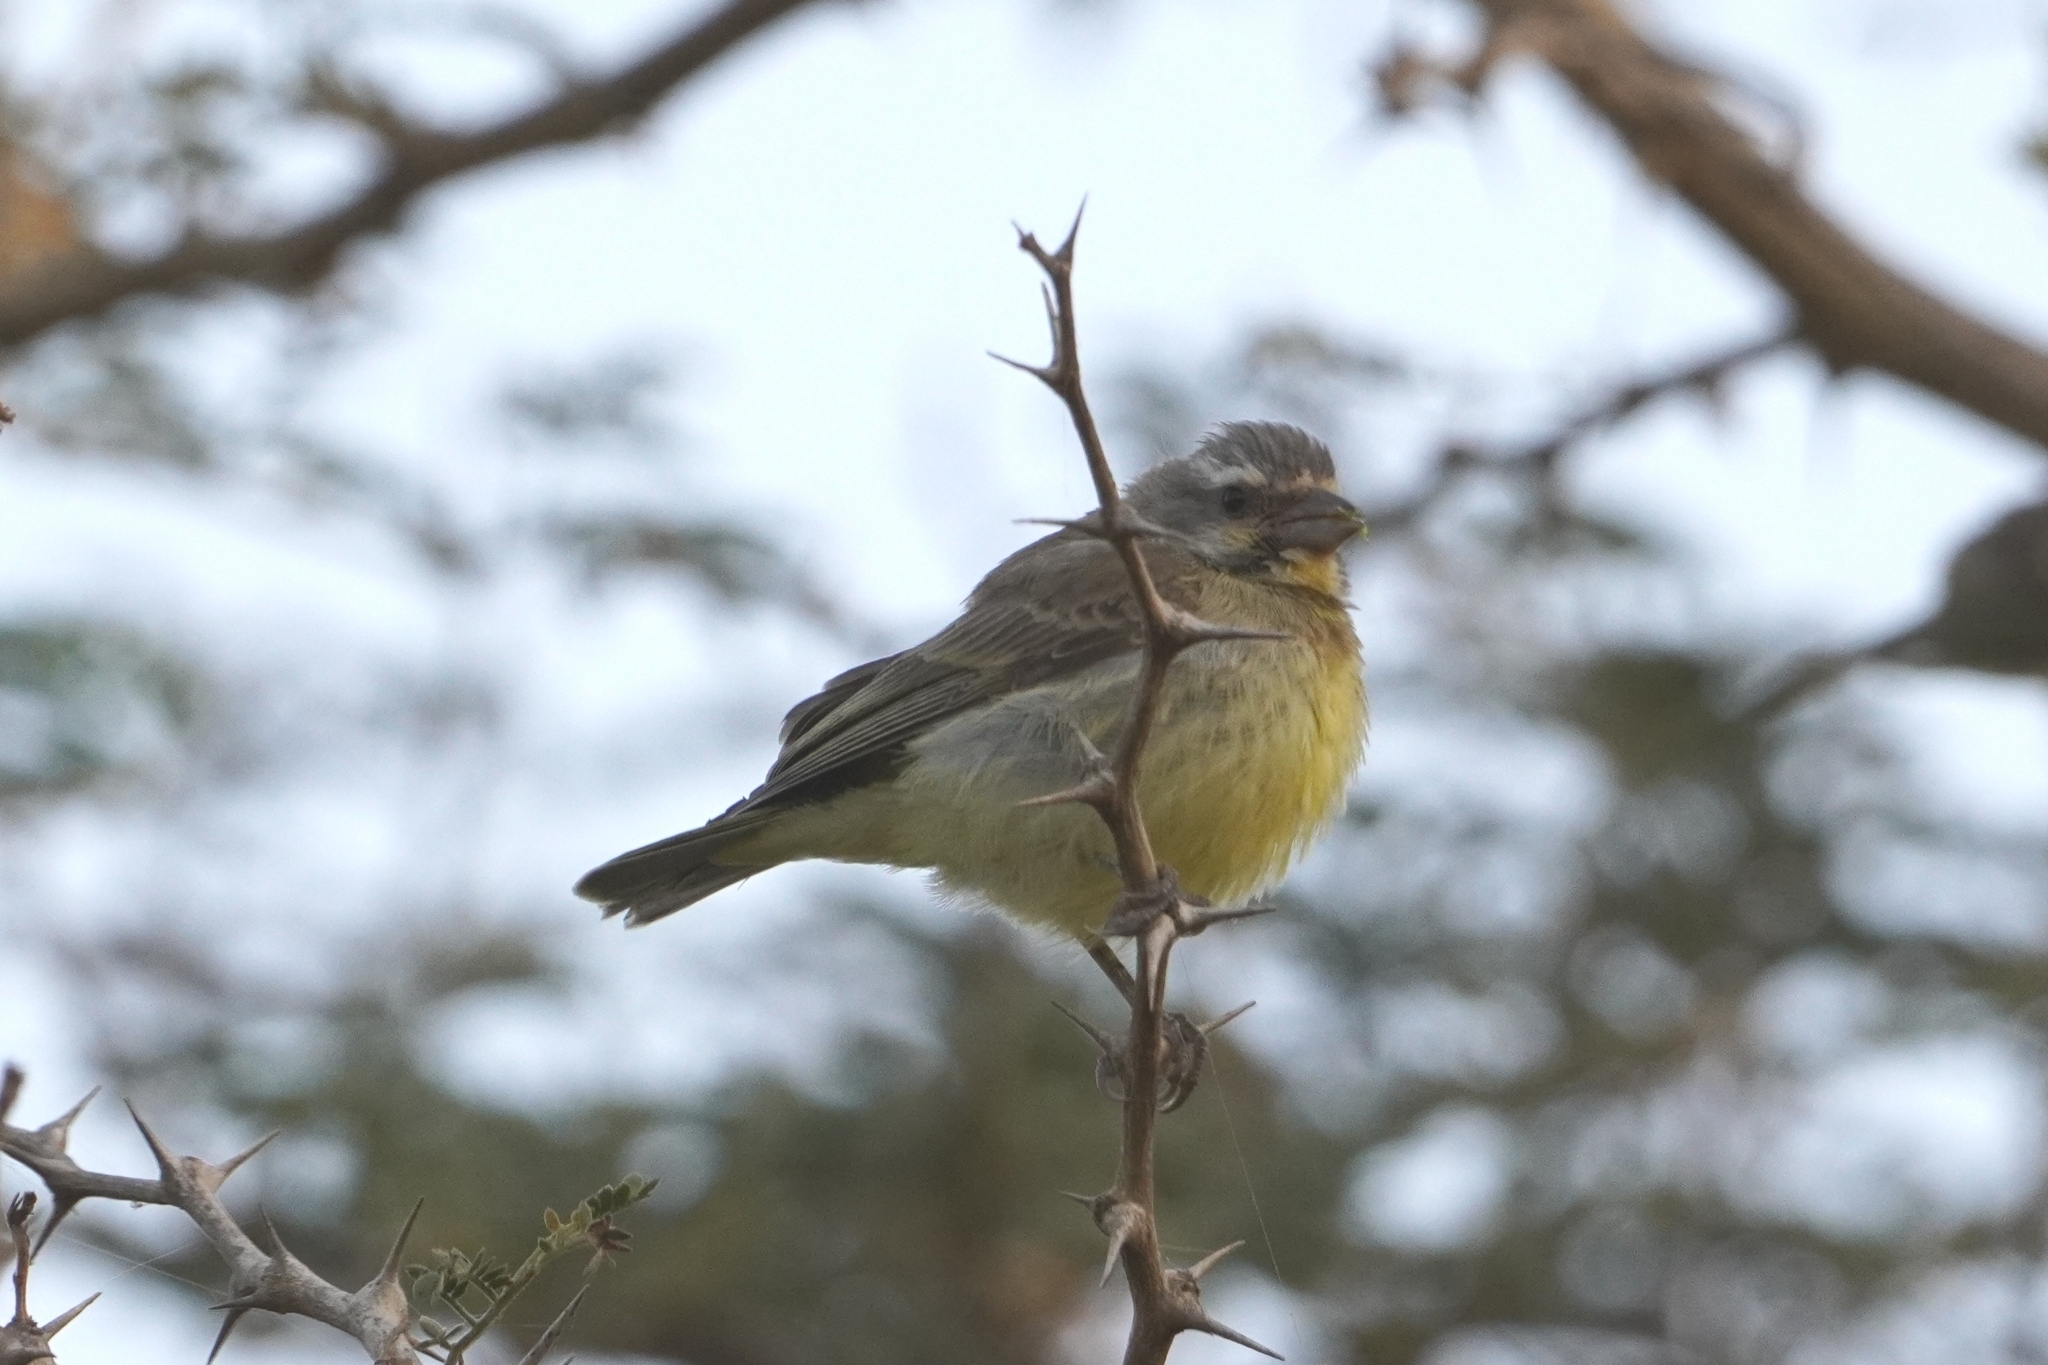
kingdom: Animalia
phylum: Chordata
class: Aves
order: Passeriformes
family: Fringillidae
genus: Crithagra
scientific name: Crithagra mozambica
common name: Yellow-fronted canary
